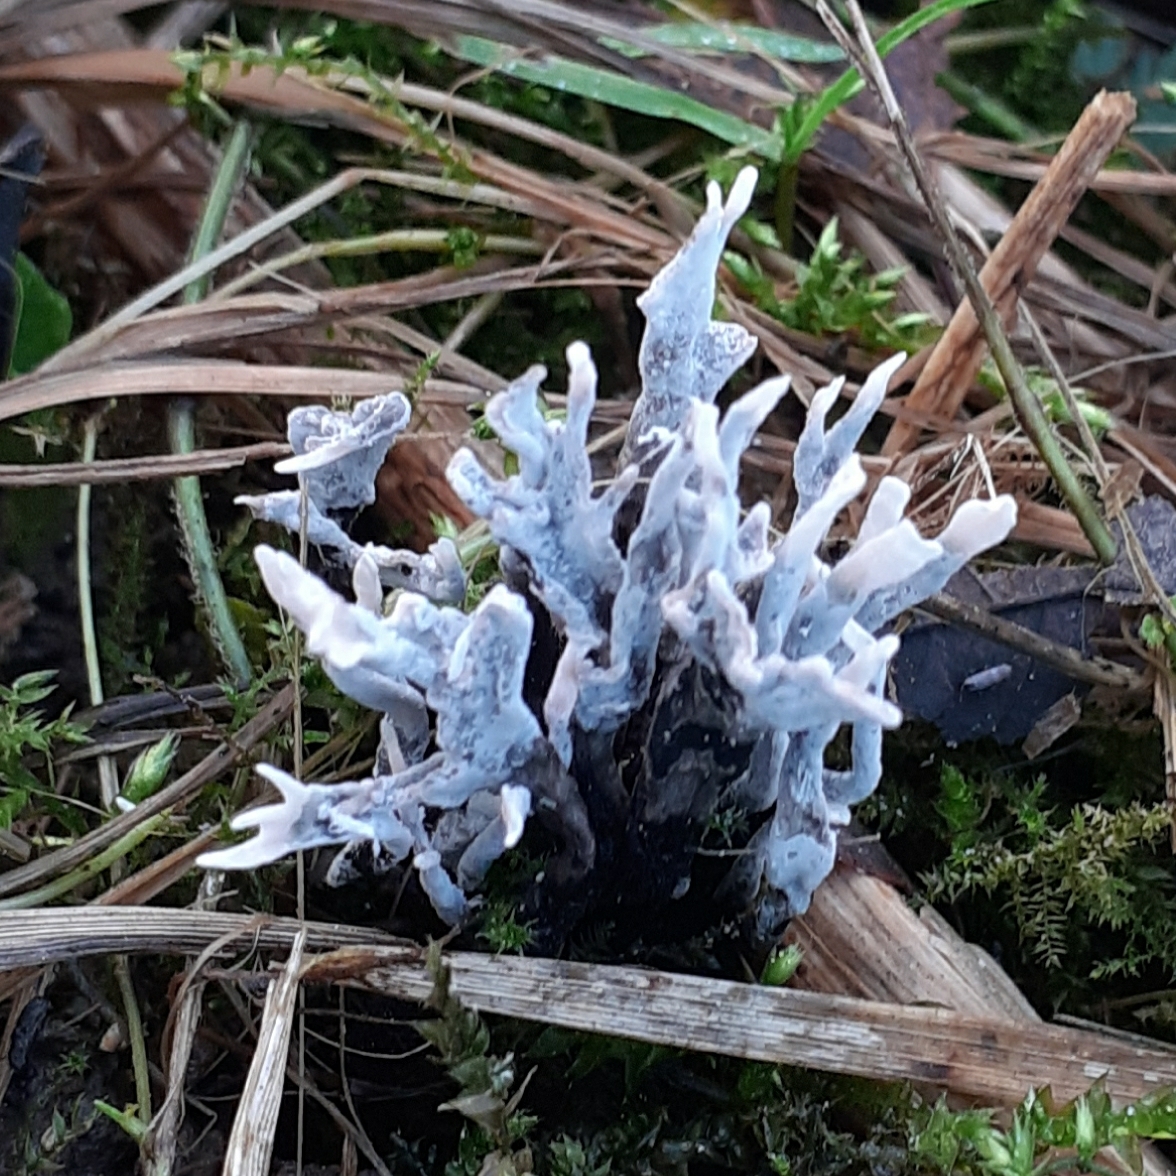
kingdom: Fungi
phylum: Ascomycota
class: Sordariomycetes
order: Xylariales
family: Xylariaceae
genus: Xylaria
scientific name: Xylaria hypoxylon
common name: Candle-snuff fungus
